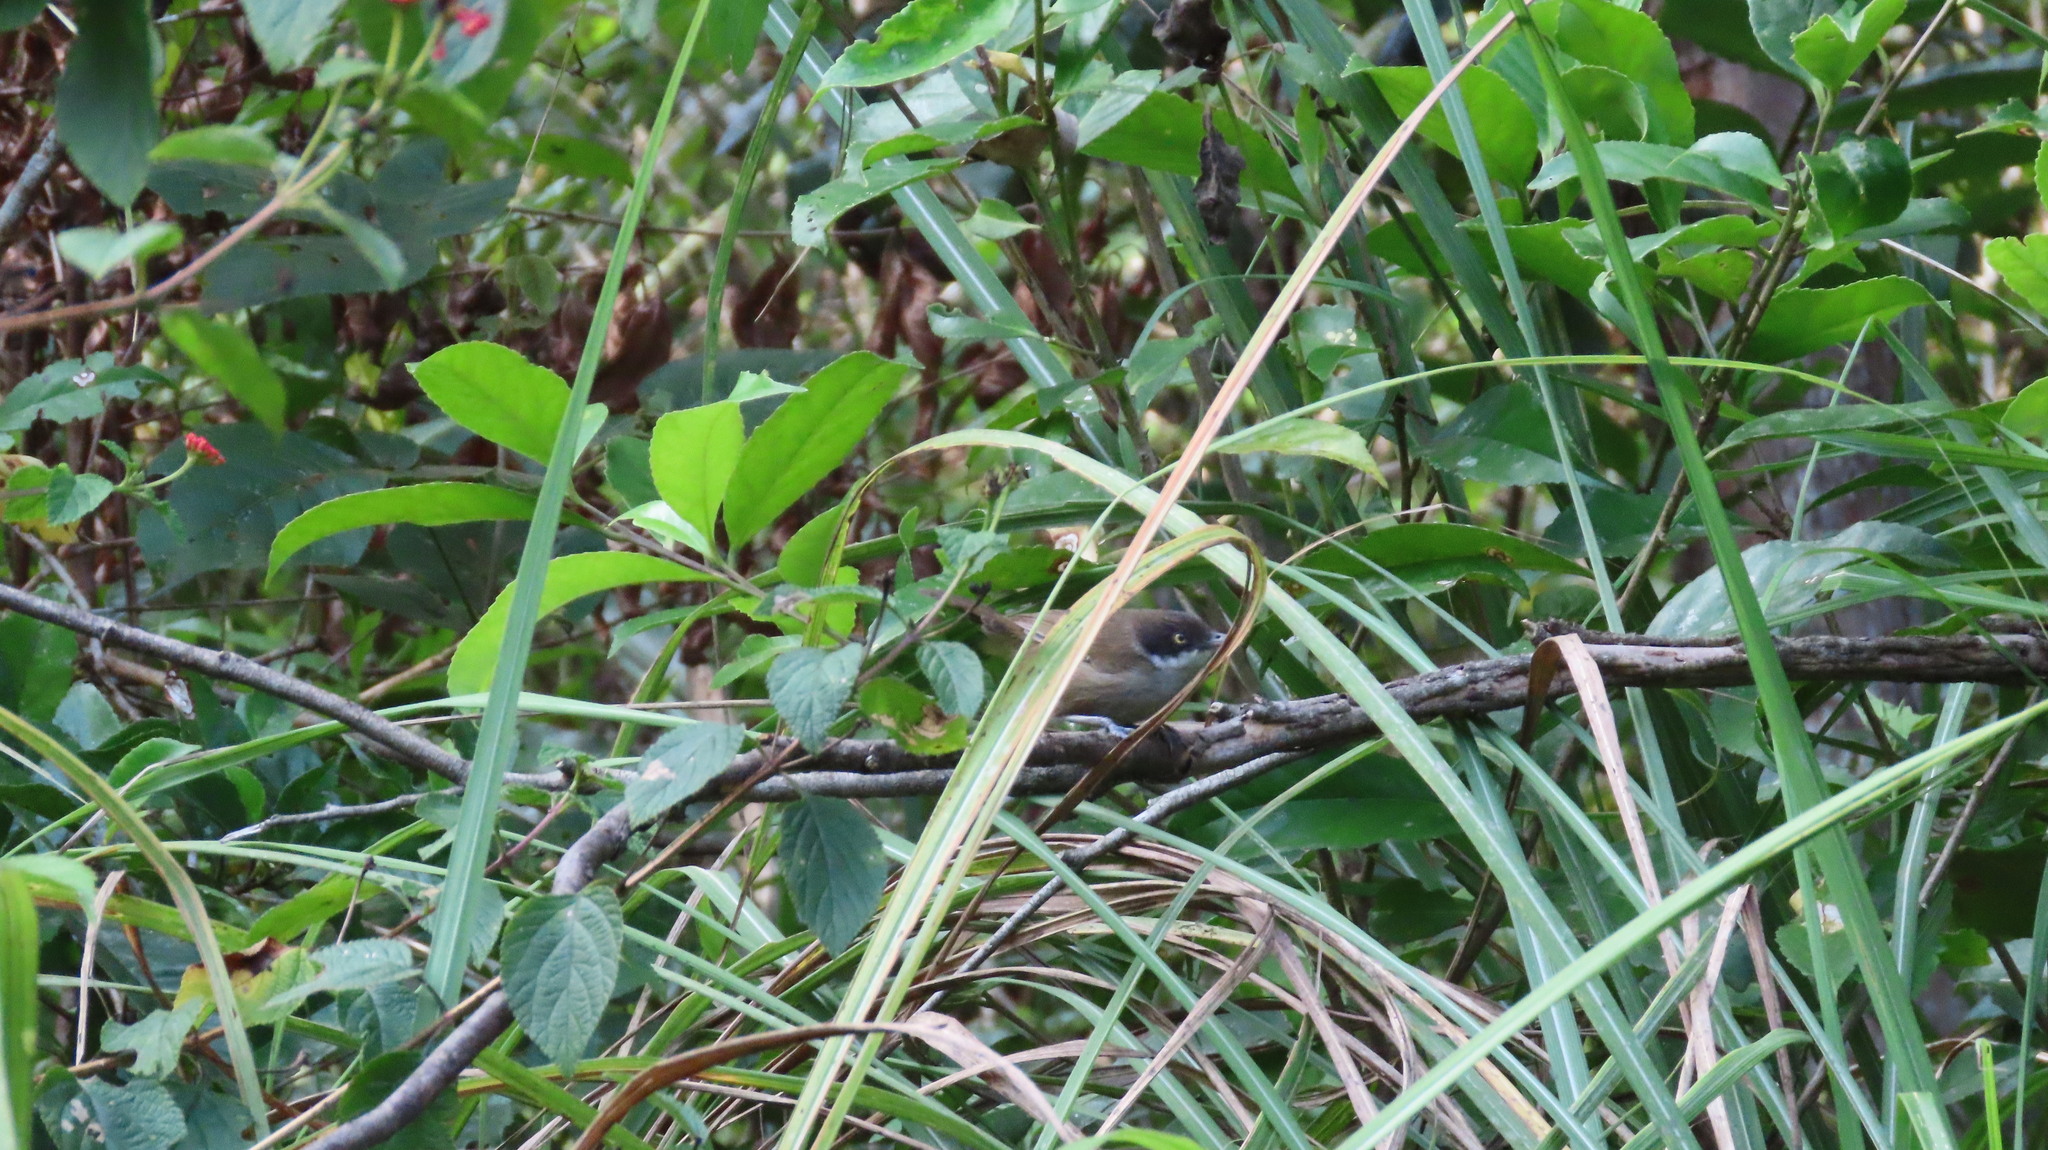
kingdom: Animalia
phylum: Chordata
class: Aves
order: Passeriformes
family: Timaliidae
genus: Rhopocichla
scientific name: Rhopocichla atriceps
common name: Dark-fronted babbler
